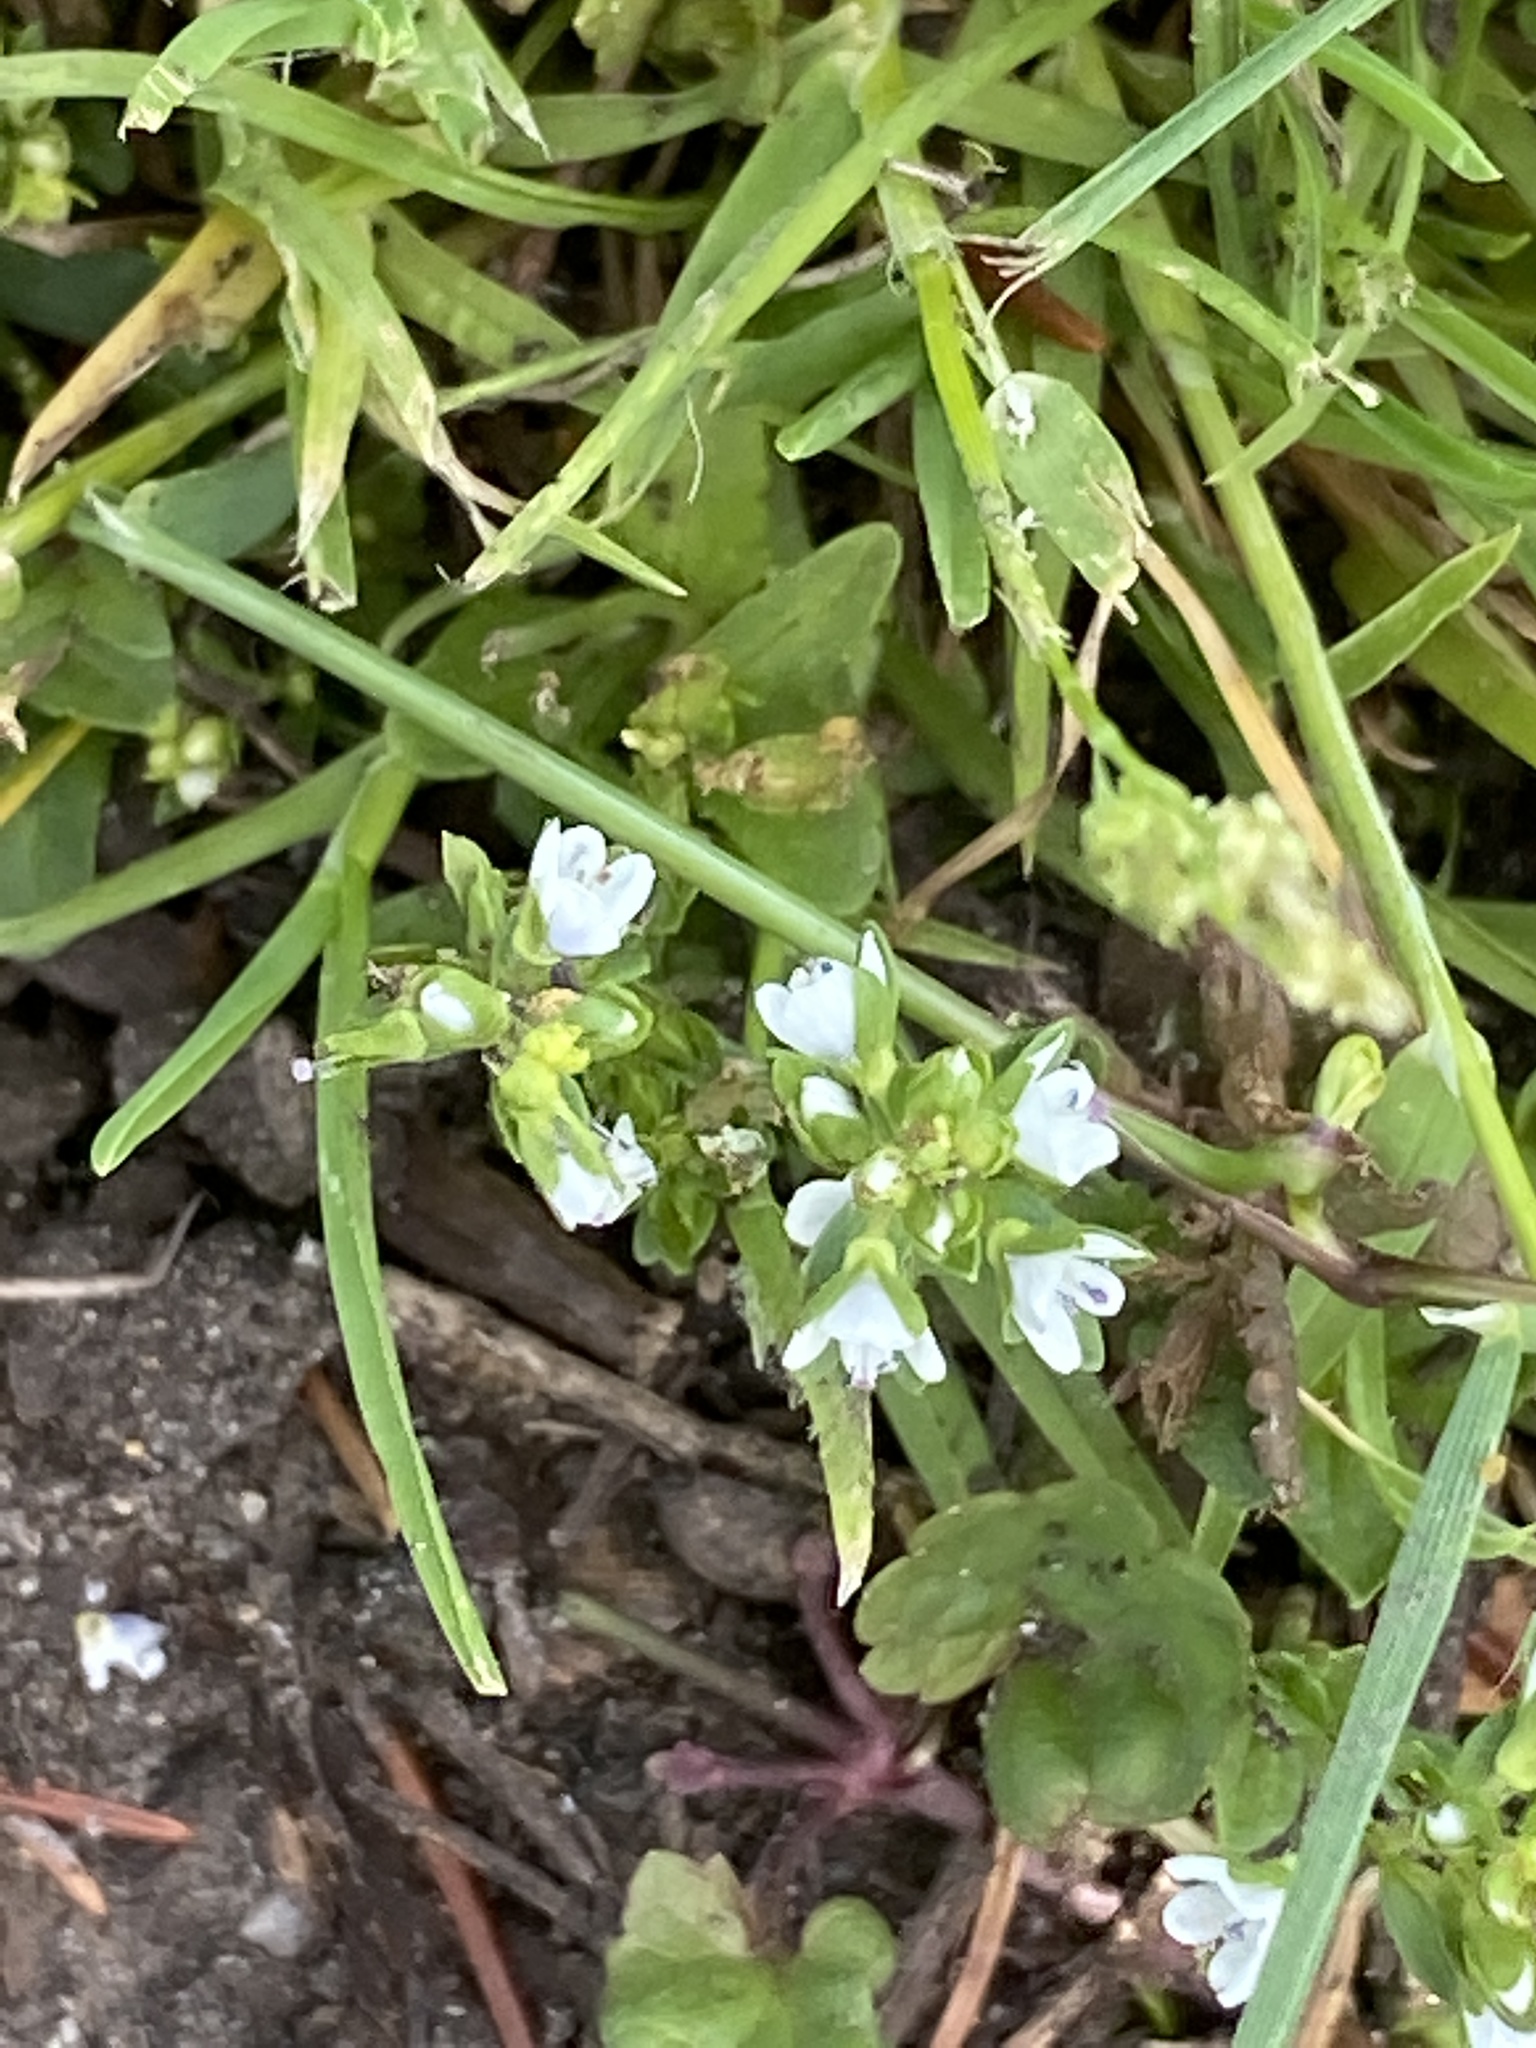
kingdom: Plantae
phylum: Tracheophyta
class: Magnoliopsida
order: Lamiales
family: Plantaginaceae
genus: Veronica
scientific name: Veronica serpyllifolia
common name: Thyme-leaved speedwell
